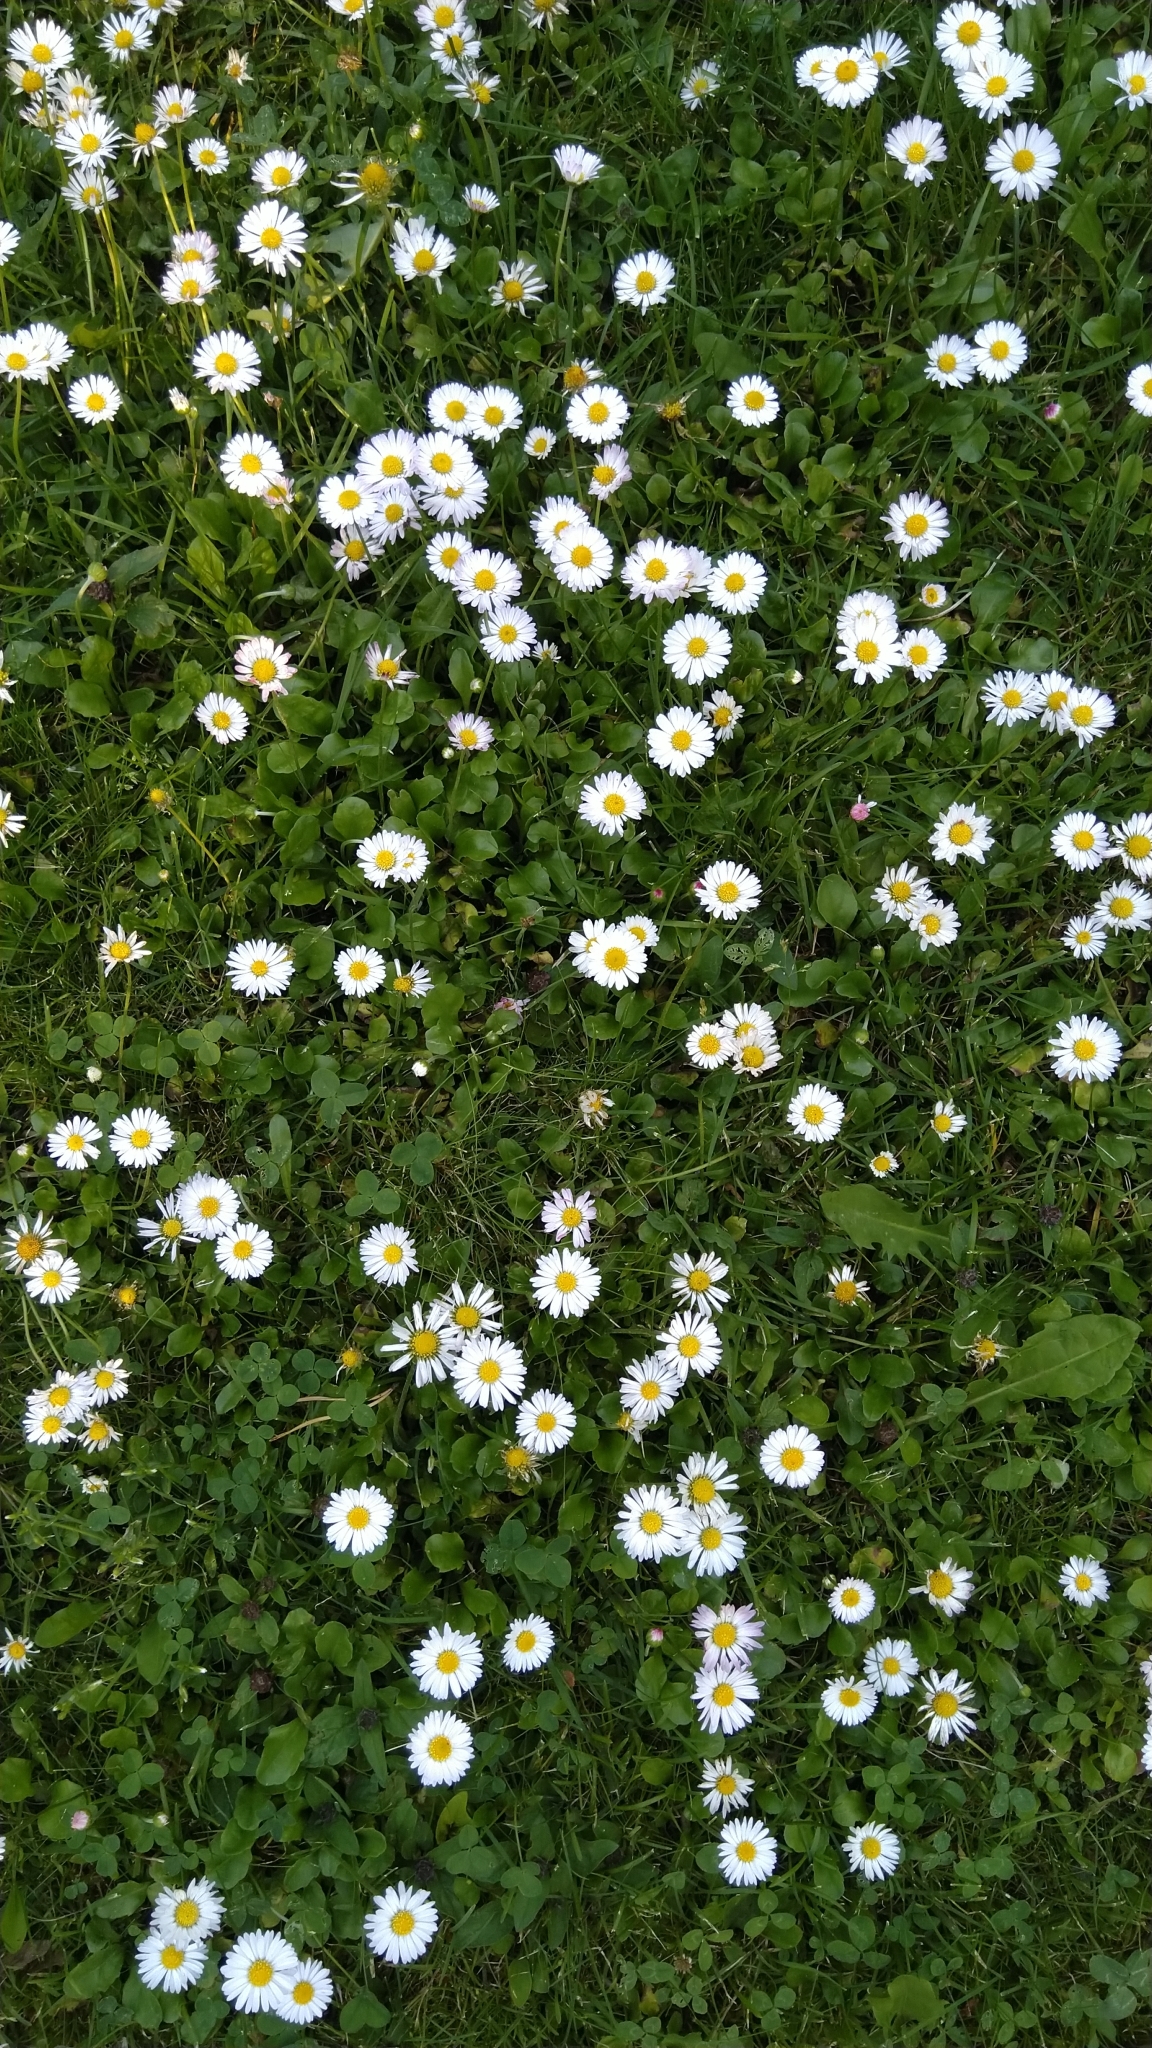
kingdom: Plantae
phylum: Tracheophyta
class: Magnoliopsida
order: Asterales
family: Asteraceae
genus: Bellis
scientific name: Bellis perennis
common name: Lawndaisy
